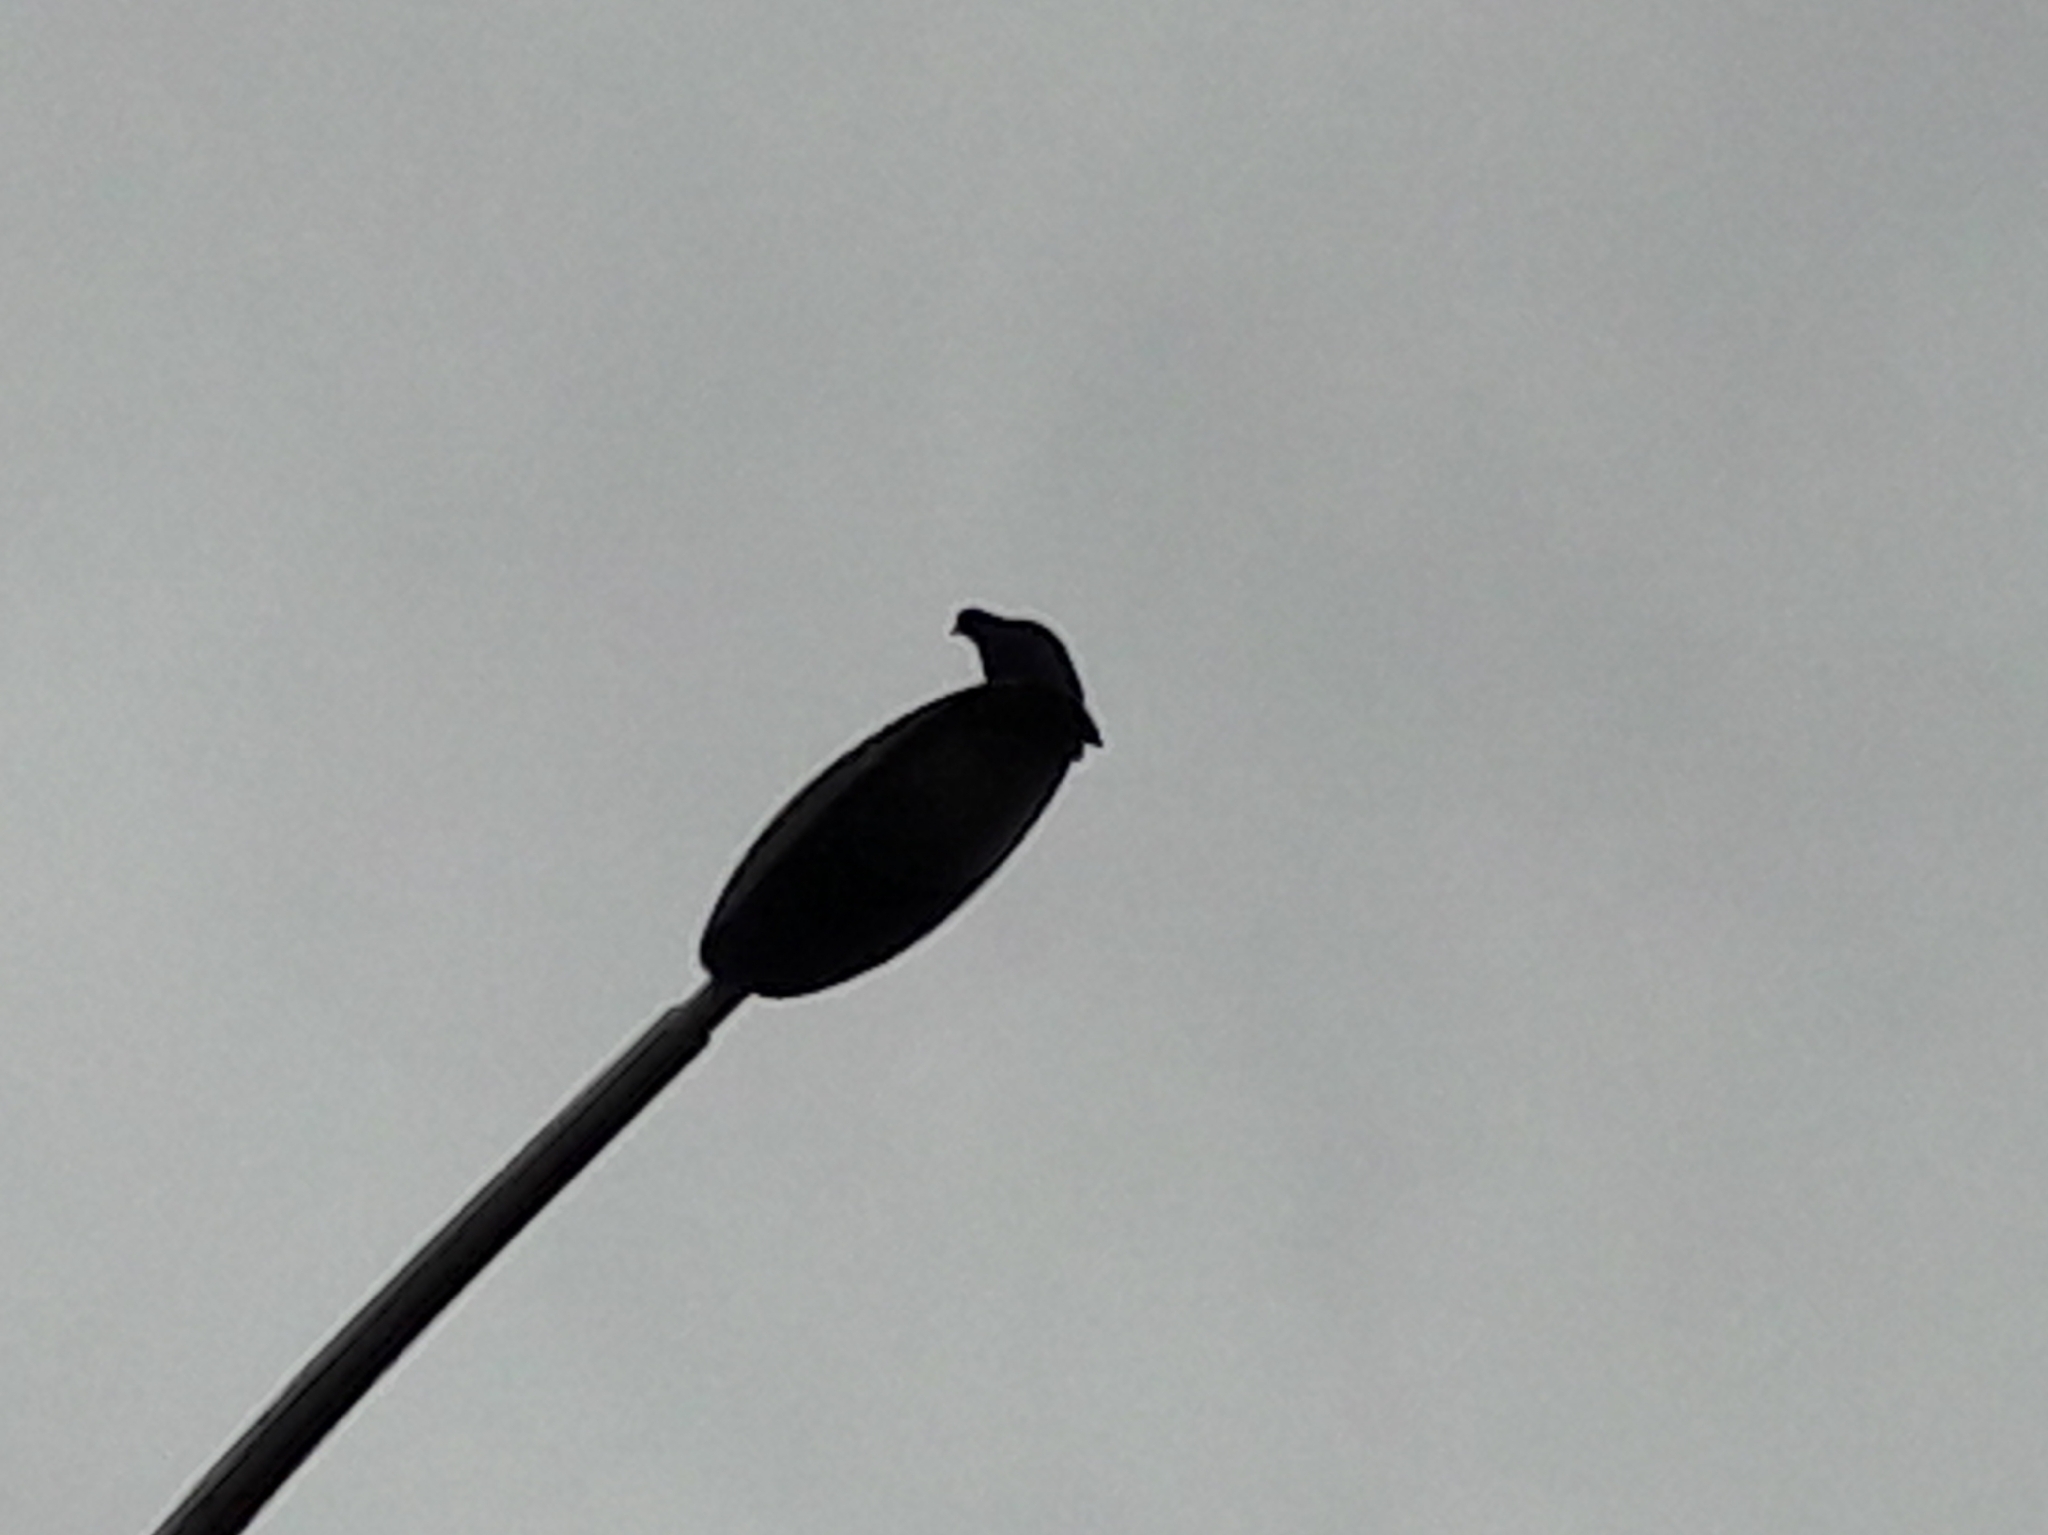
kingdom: Animalia
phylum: Chordata
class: Aves
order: Columbiformes
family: Columbidae
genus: Columba
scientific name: Columba livia
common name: Rock pigeon
